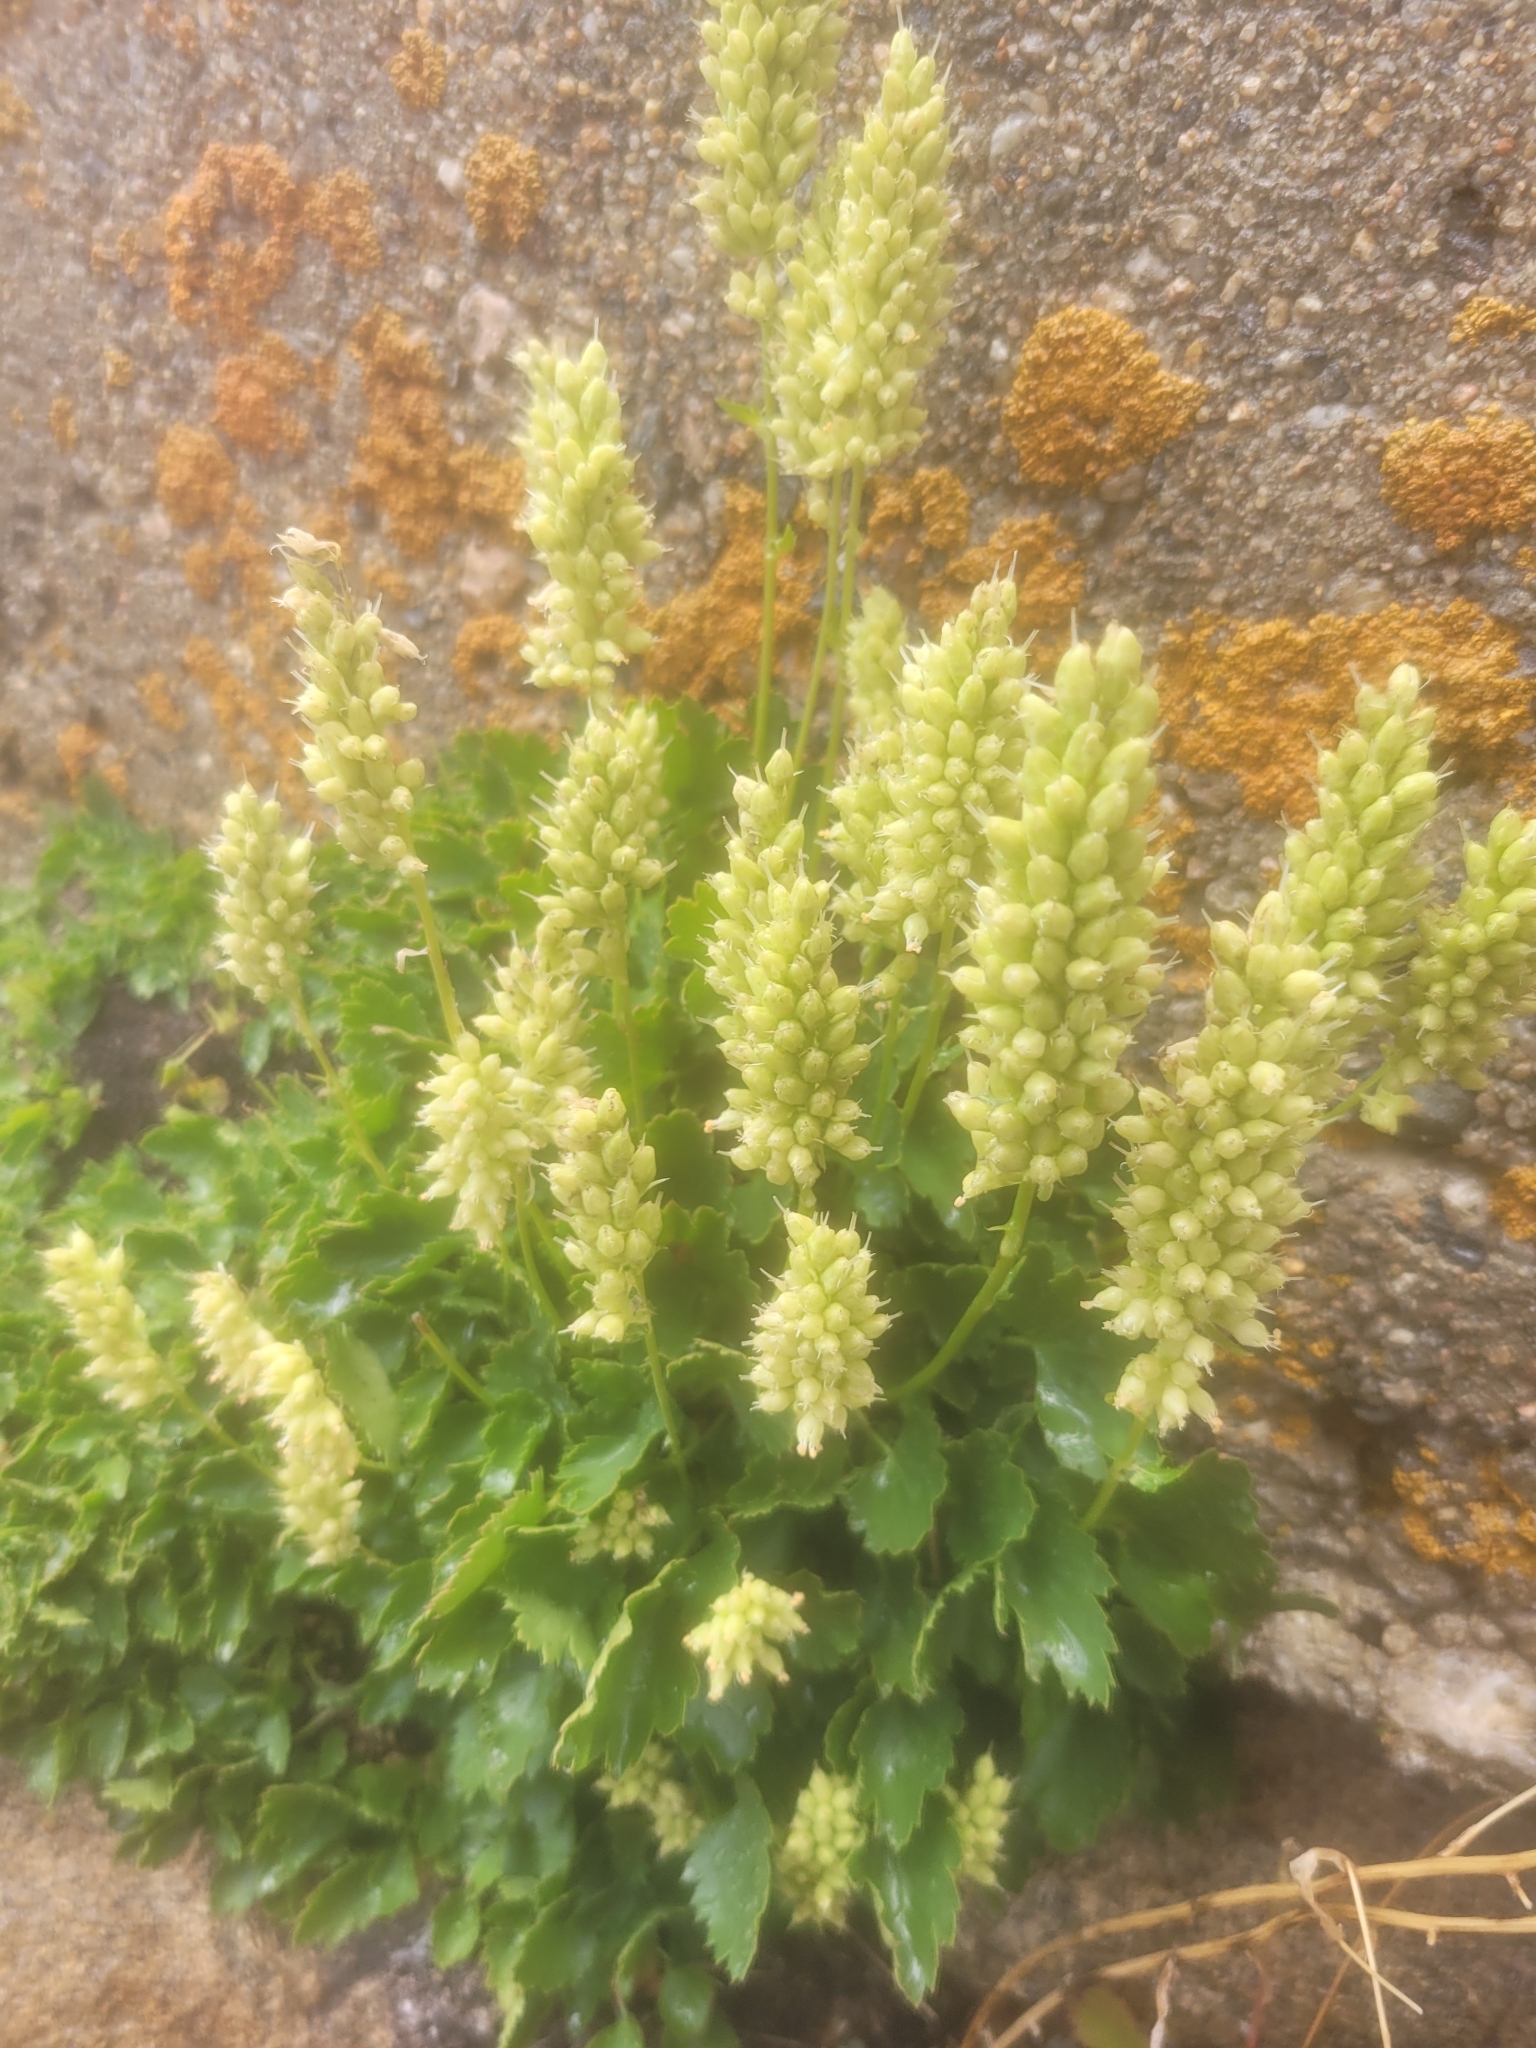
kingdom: Plantae
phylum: Tracheophyta
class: Magnoliopsida
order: Saxifragales
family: Saxifragaceae
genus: Heuchera
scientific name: Heuchera bracteata
